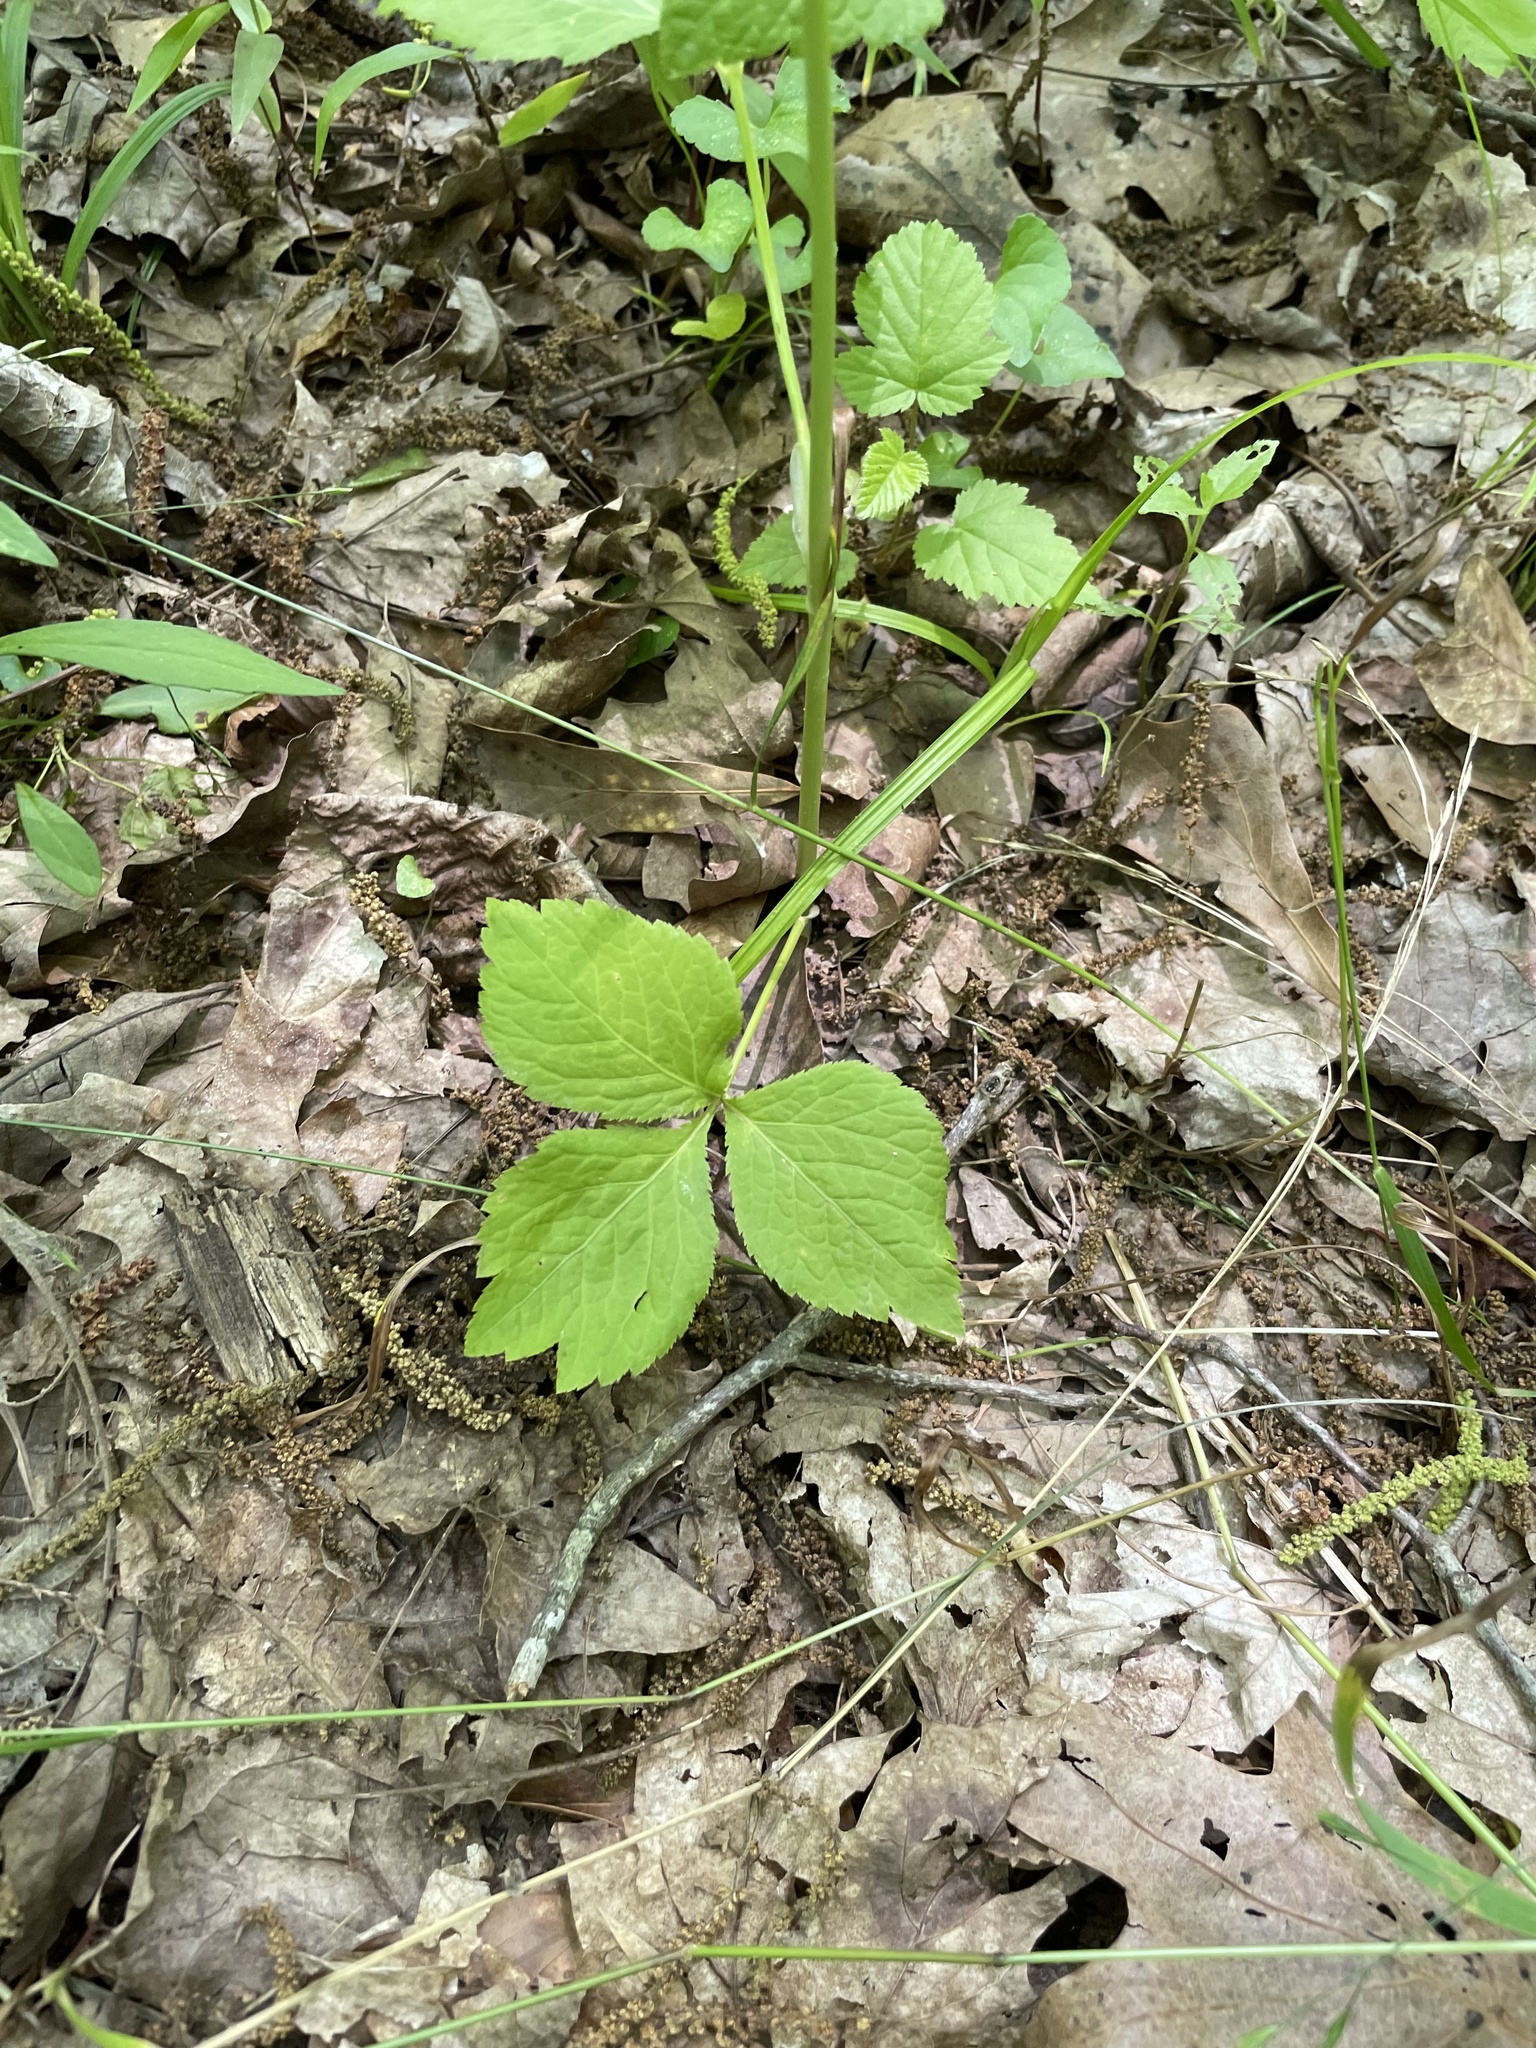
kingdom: Plantae
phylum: Tracheophyta
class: Magnoliopsida
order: Apiales
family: Apiaceae
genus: Cryptotaenia
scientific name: Cryptotaenia canadensis
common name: Honewort
